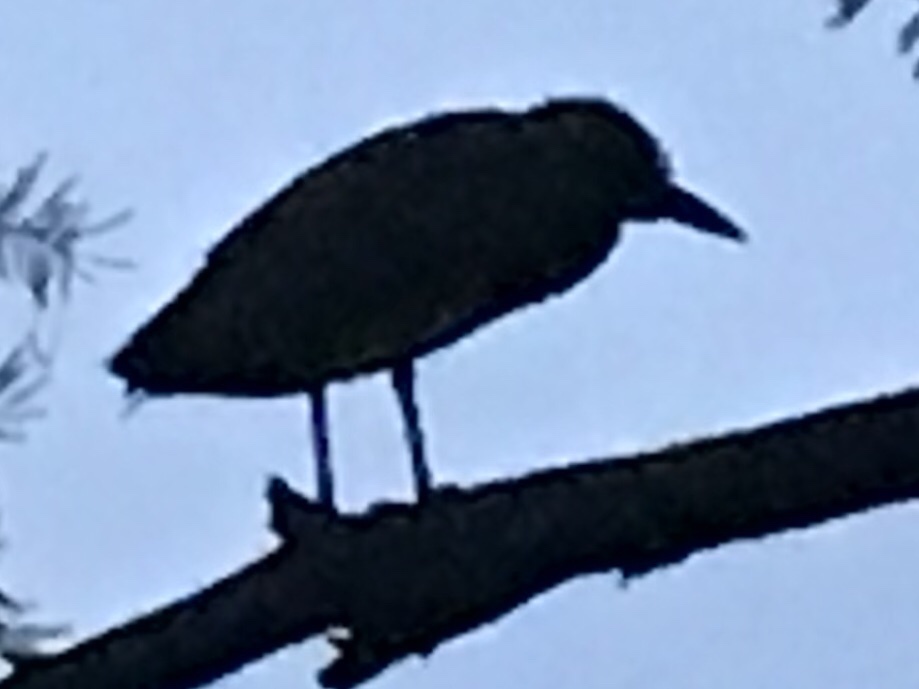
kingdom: Animalia
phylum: Chordata
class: Aves
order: Pelecaniformes
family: Ardeidae
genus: Nyctanassa
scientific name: Nyctanassa violacea
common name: Yellow-crowned night heron
